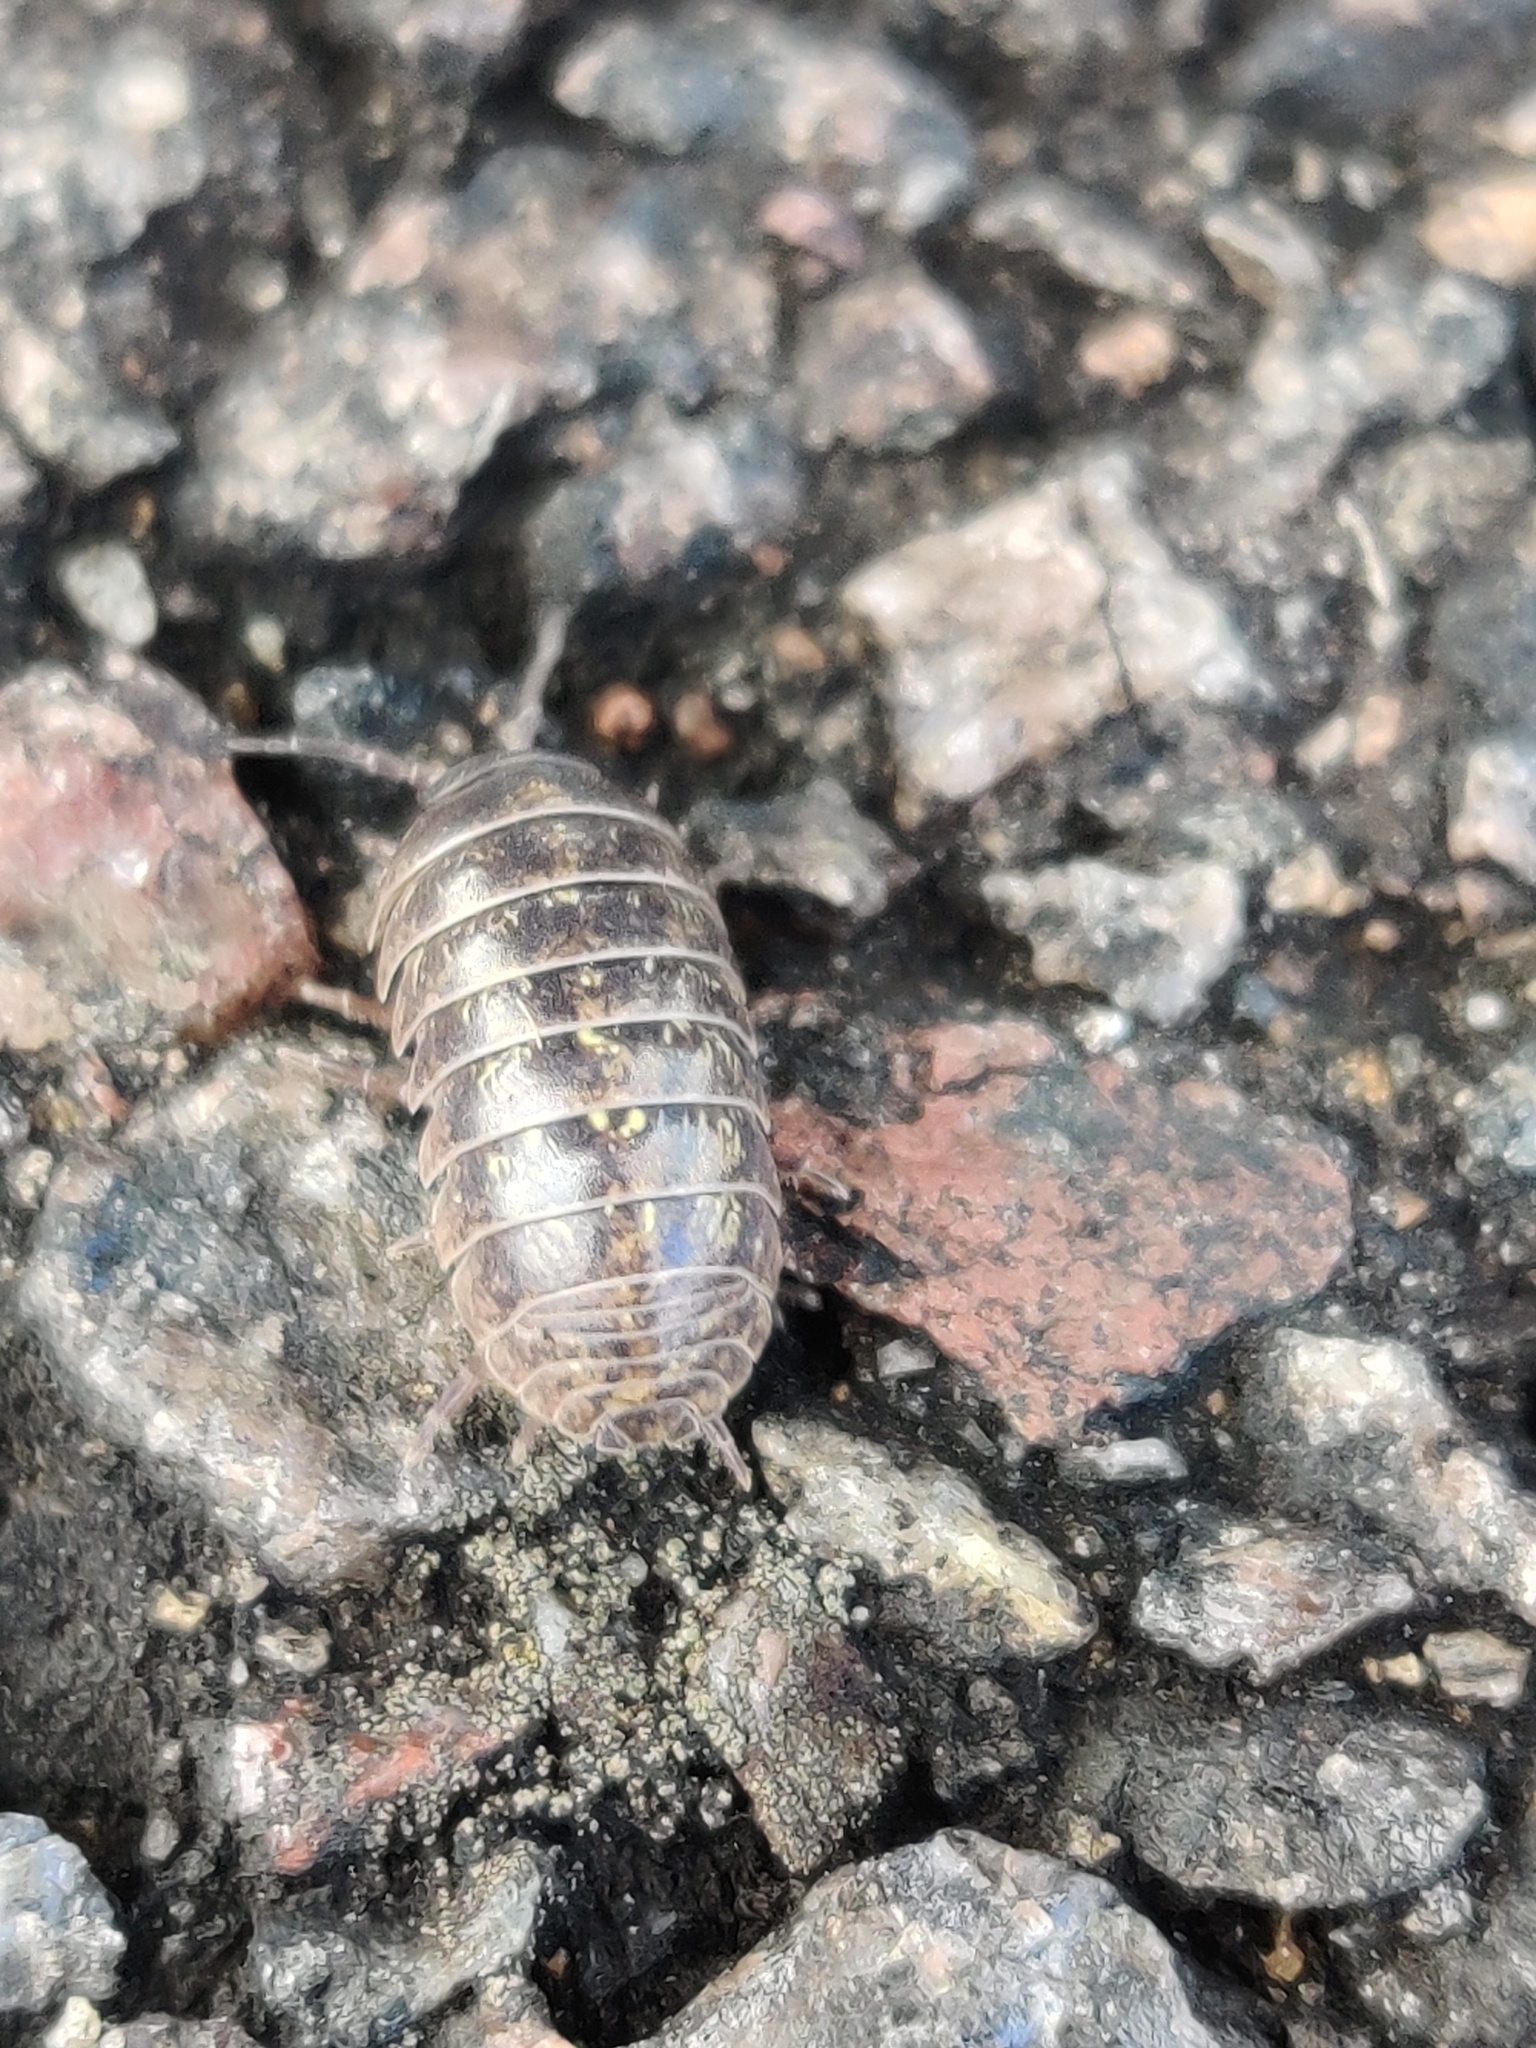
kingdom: Animalia
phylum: Arthropoda
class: Malacostraca
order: Isopoda
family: Armadillidiidae
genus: Armadillidium
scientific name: Armadillidium vulgare
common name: Common pill woodlouse
